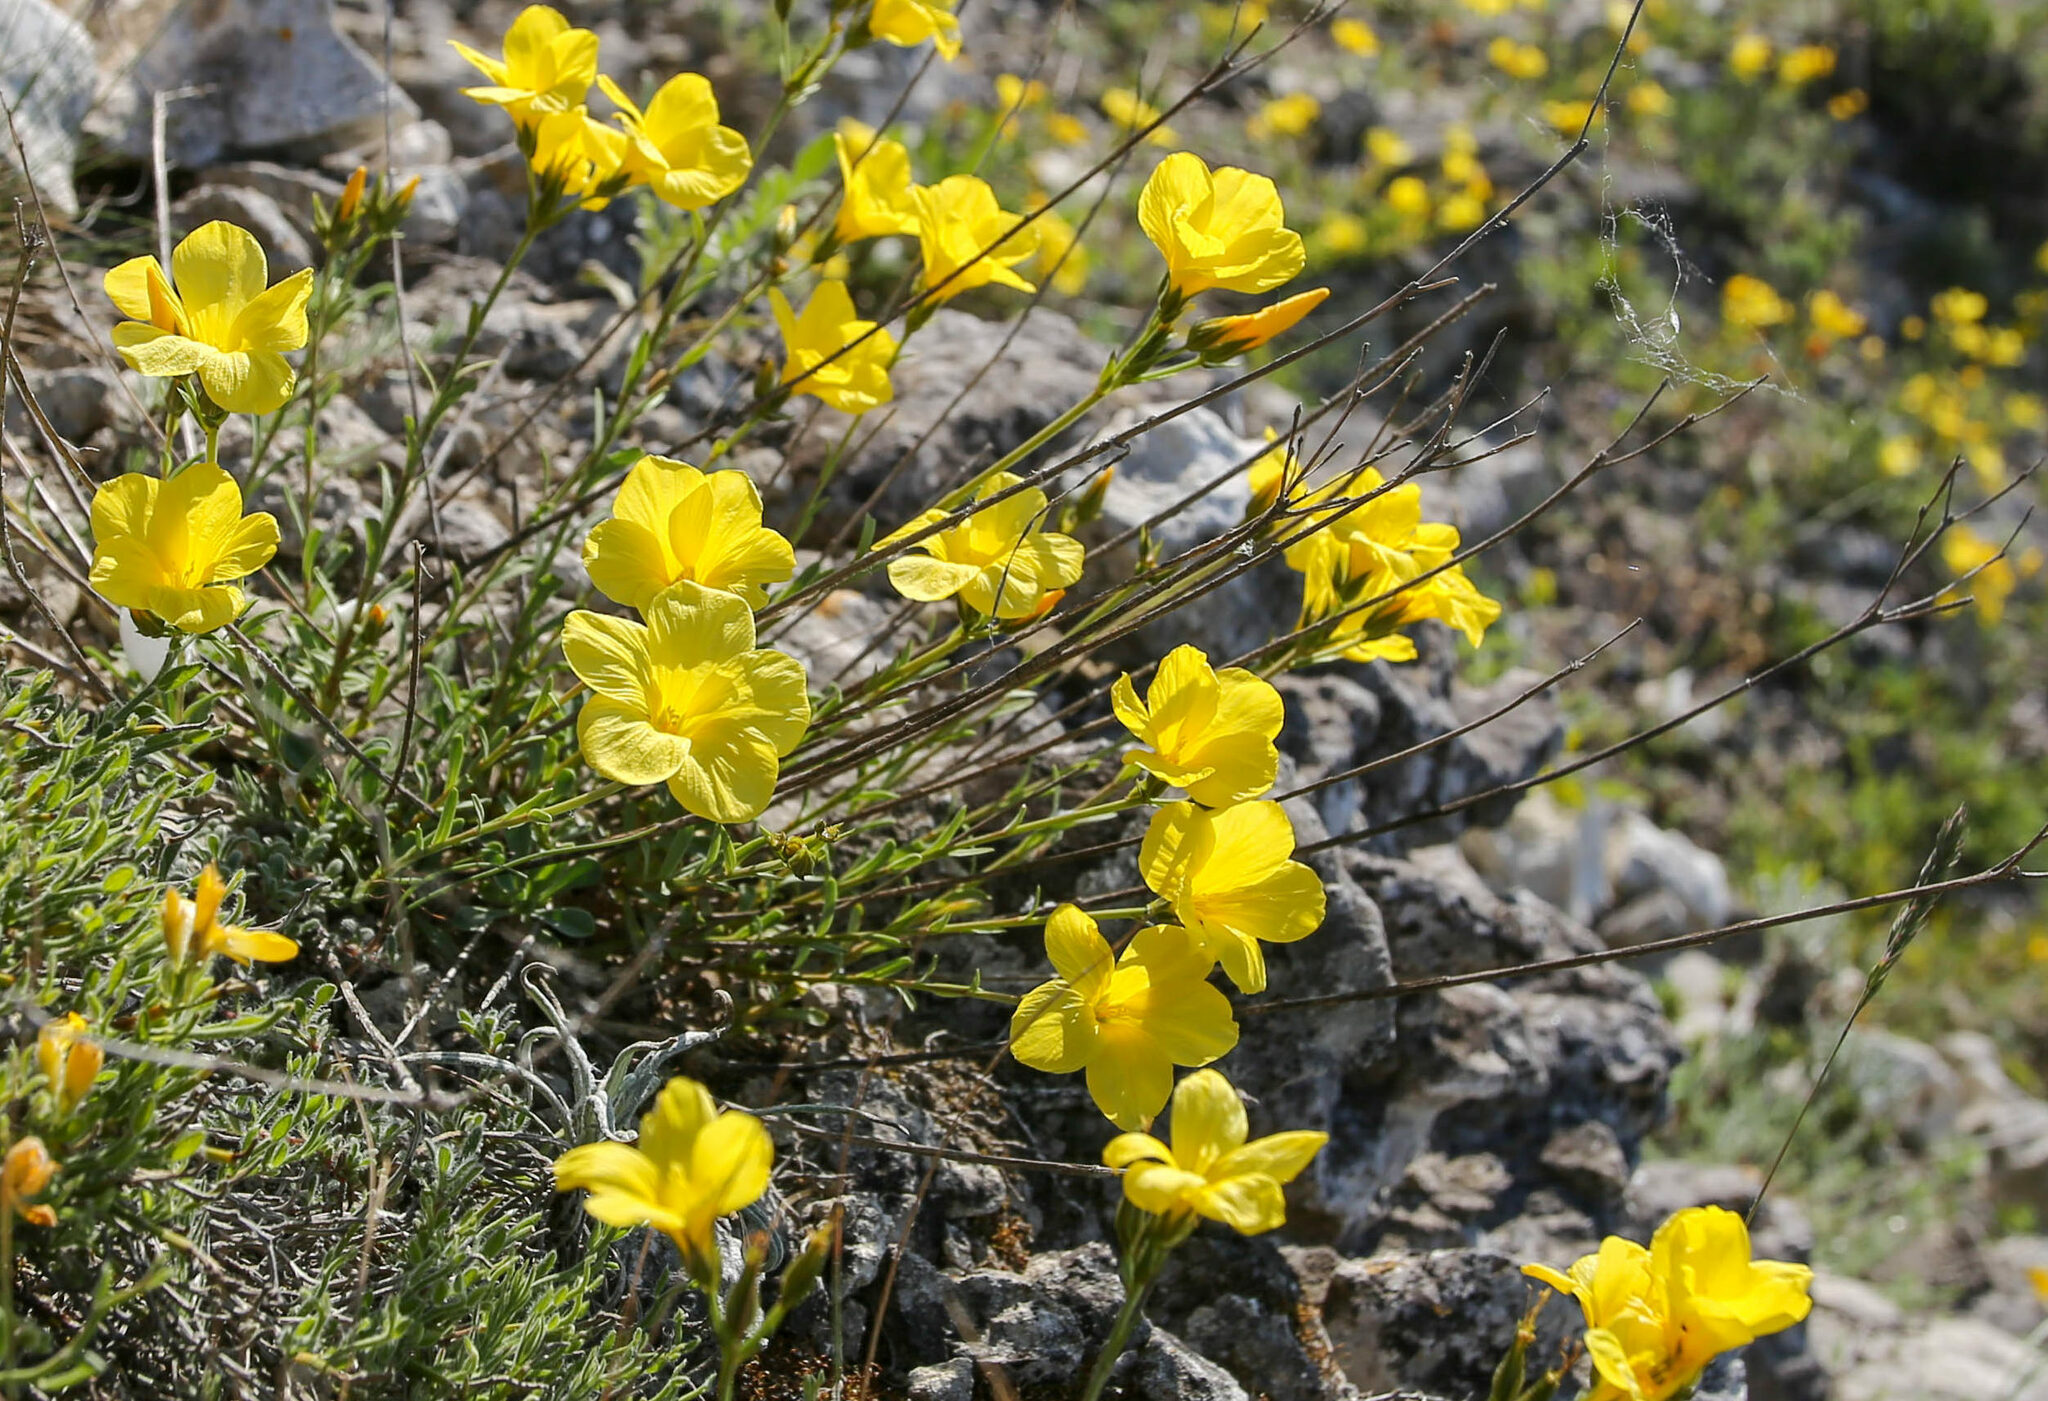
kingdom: Plantae
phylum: Tracheophyta
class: Magnoliopsida
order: Malpighiales
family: Linaceae
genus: Linum
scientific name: Linum tauricum
